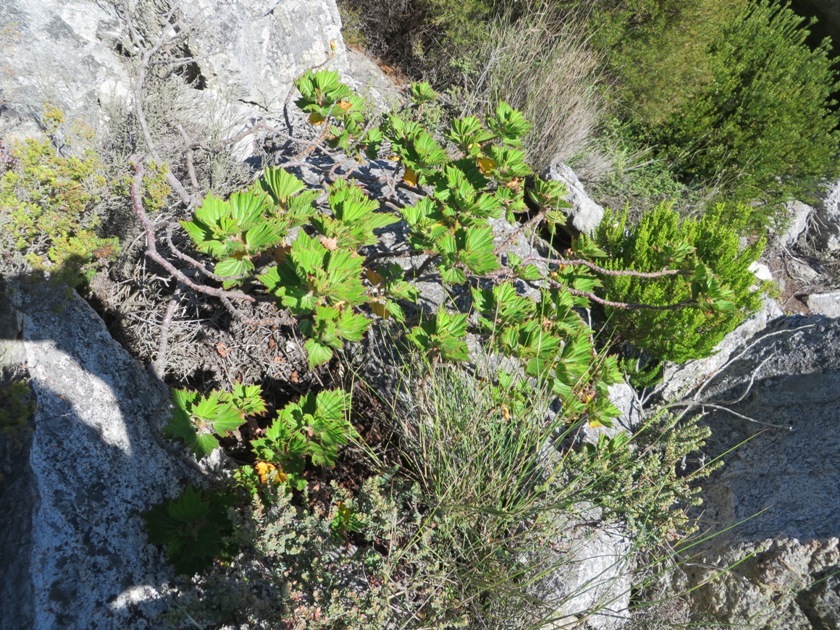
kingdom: Plantae
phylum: Tracheophyta
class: Magnoliopsida
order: Geraniales
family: Geraniaceae
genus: Pelargonium
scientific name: Pelargonium cucullatum
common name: Tree pelargonium
